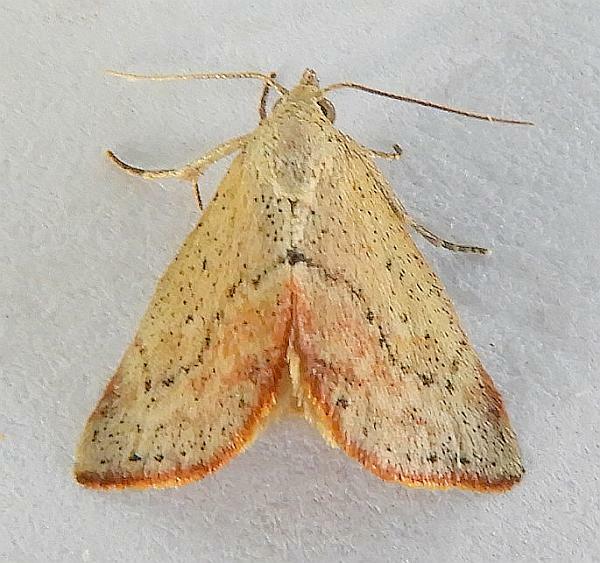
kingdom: Animalia
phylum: Arthropoda
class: Insecta
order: Lepidoptera
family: Noctuidae
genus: Proroblemma
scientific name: Proroblemma testa
